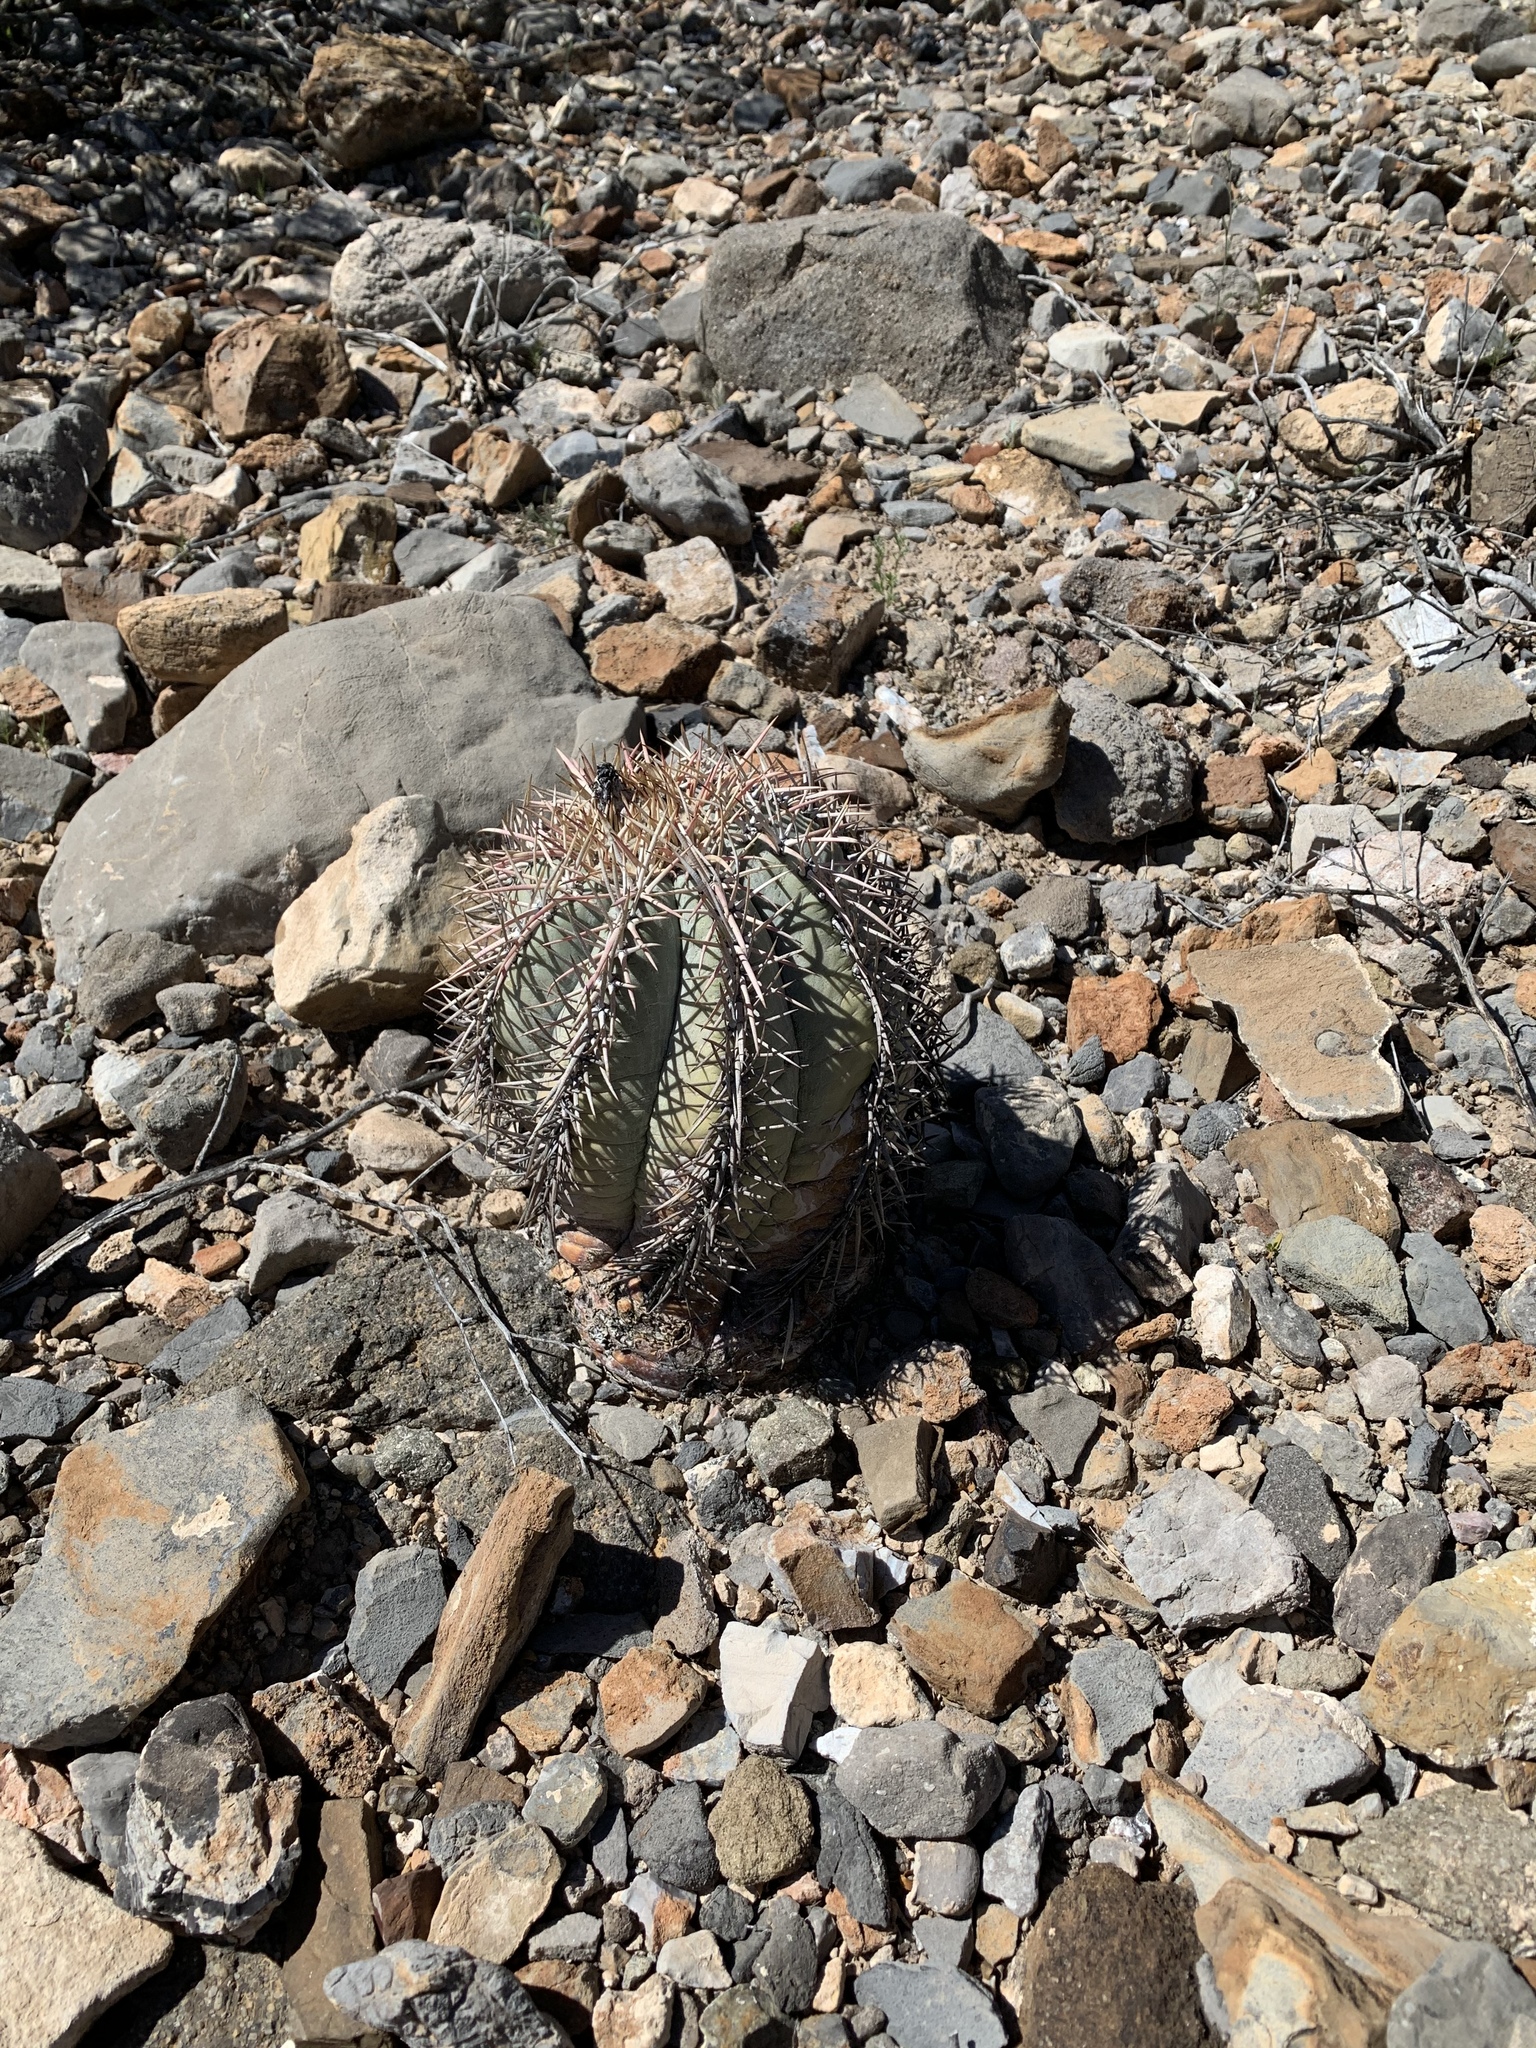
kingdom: Plantae
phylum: Tracheophyta
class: Magnoliopsida
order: Caryophyllales
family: Cactaceae
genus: Echinocactus
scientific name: Echinocactus horizonthalonius
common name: Devilshead
